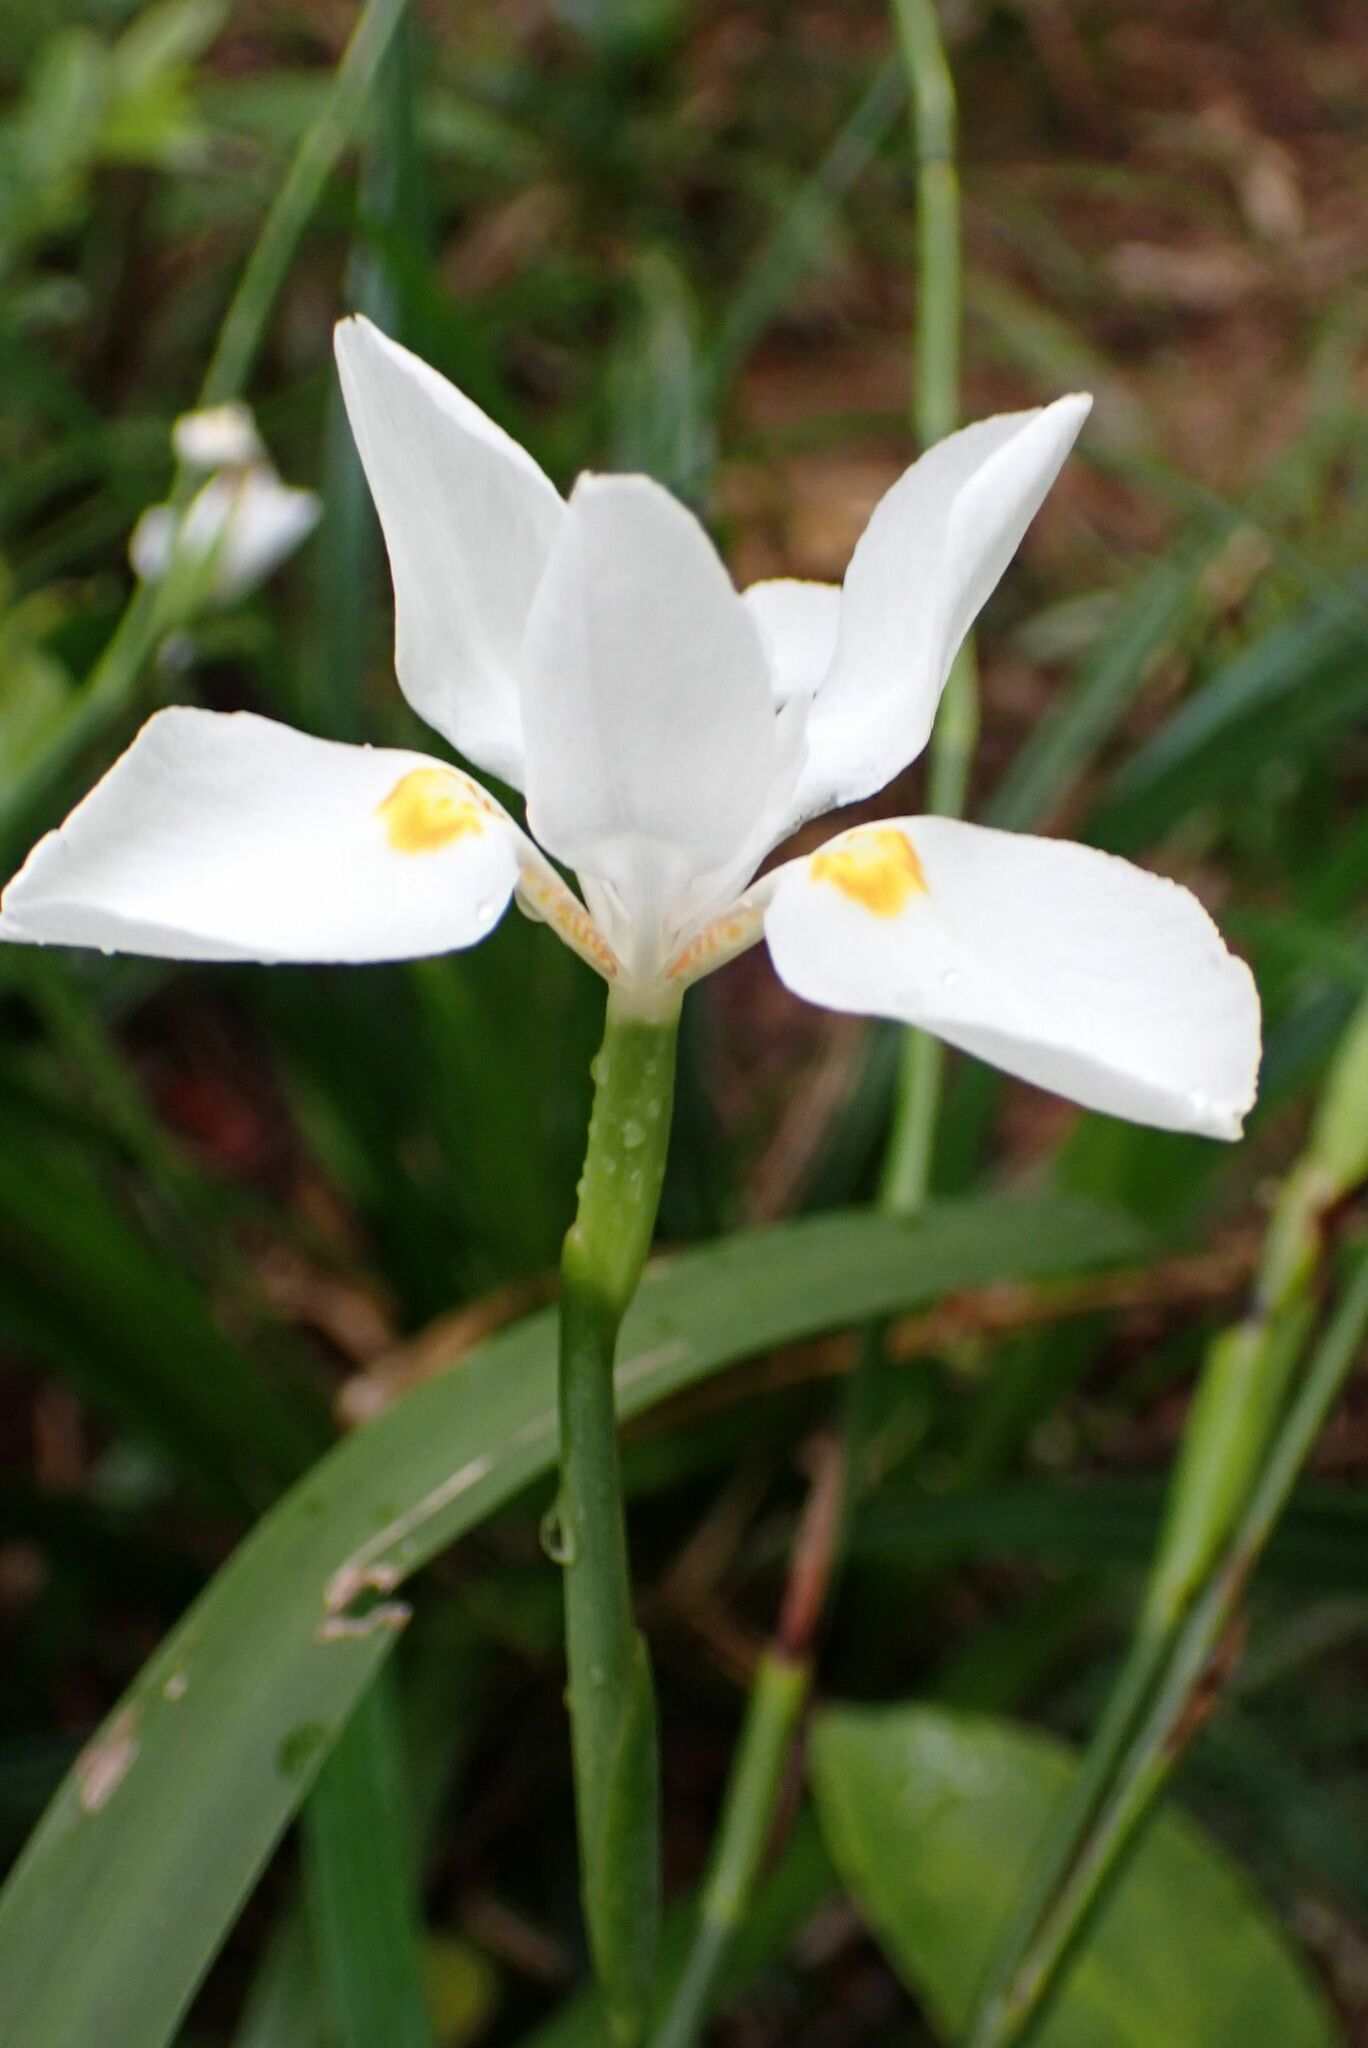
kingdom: Plantae
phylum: Tracheophyta
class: Liliopsida
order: Asparagales
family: Iridaceae
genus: Dietes
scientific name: Dietes iridioides
